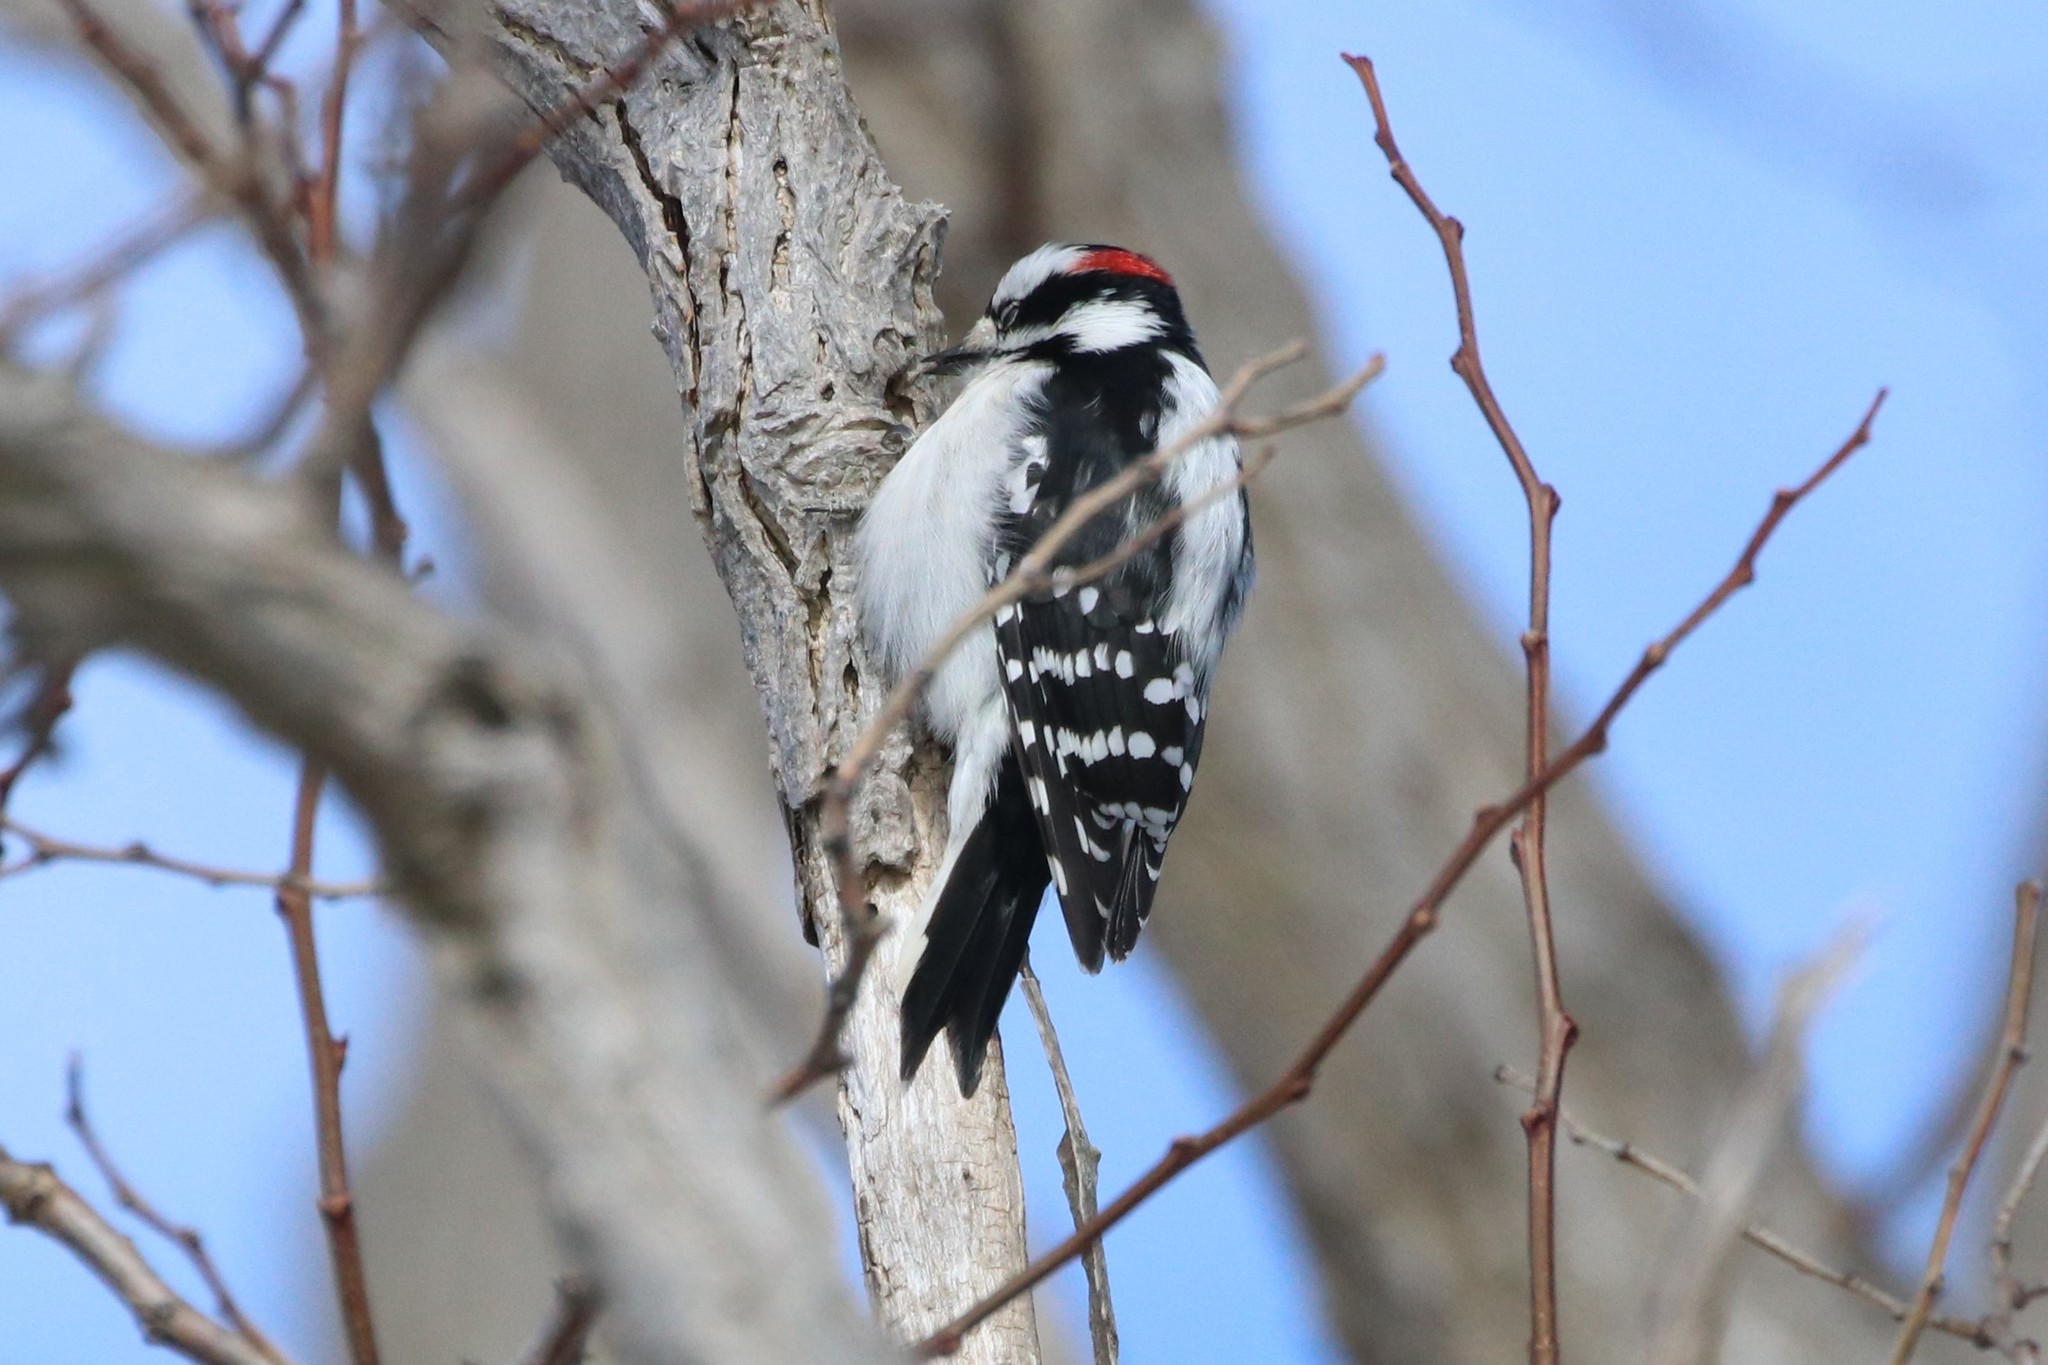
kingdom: Animalia
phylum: Chordata
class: Aves
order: Piciformes
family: Picidae
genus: Dryobates
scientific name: Dryobates pubescens
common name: Downy woodpecker
